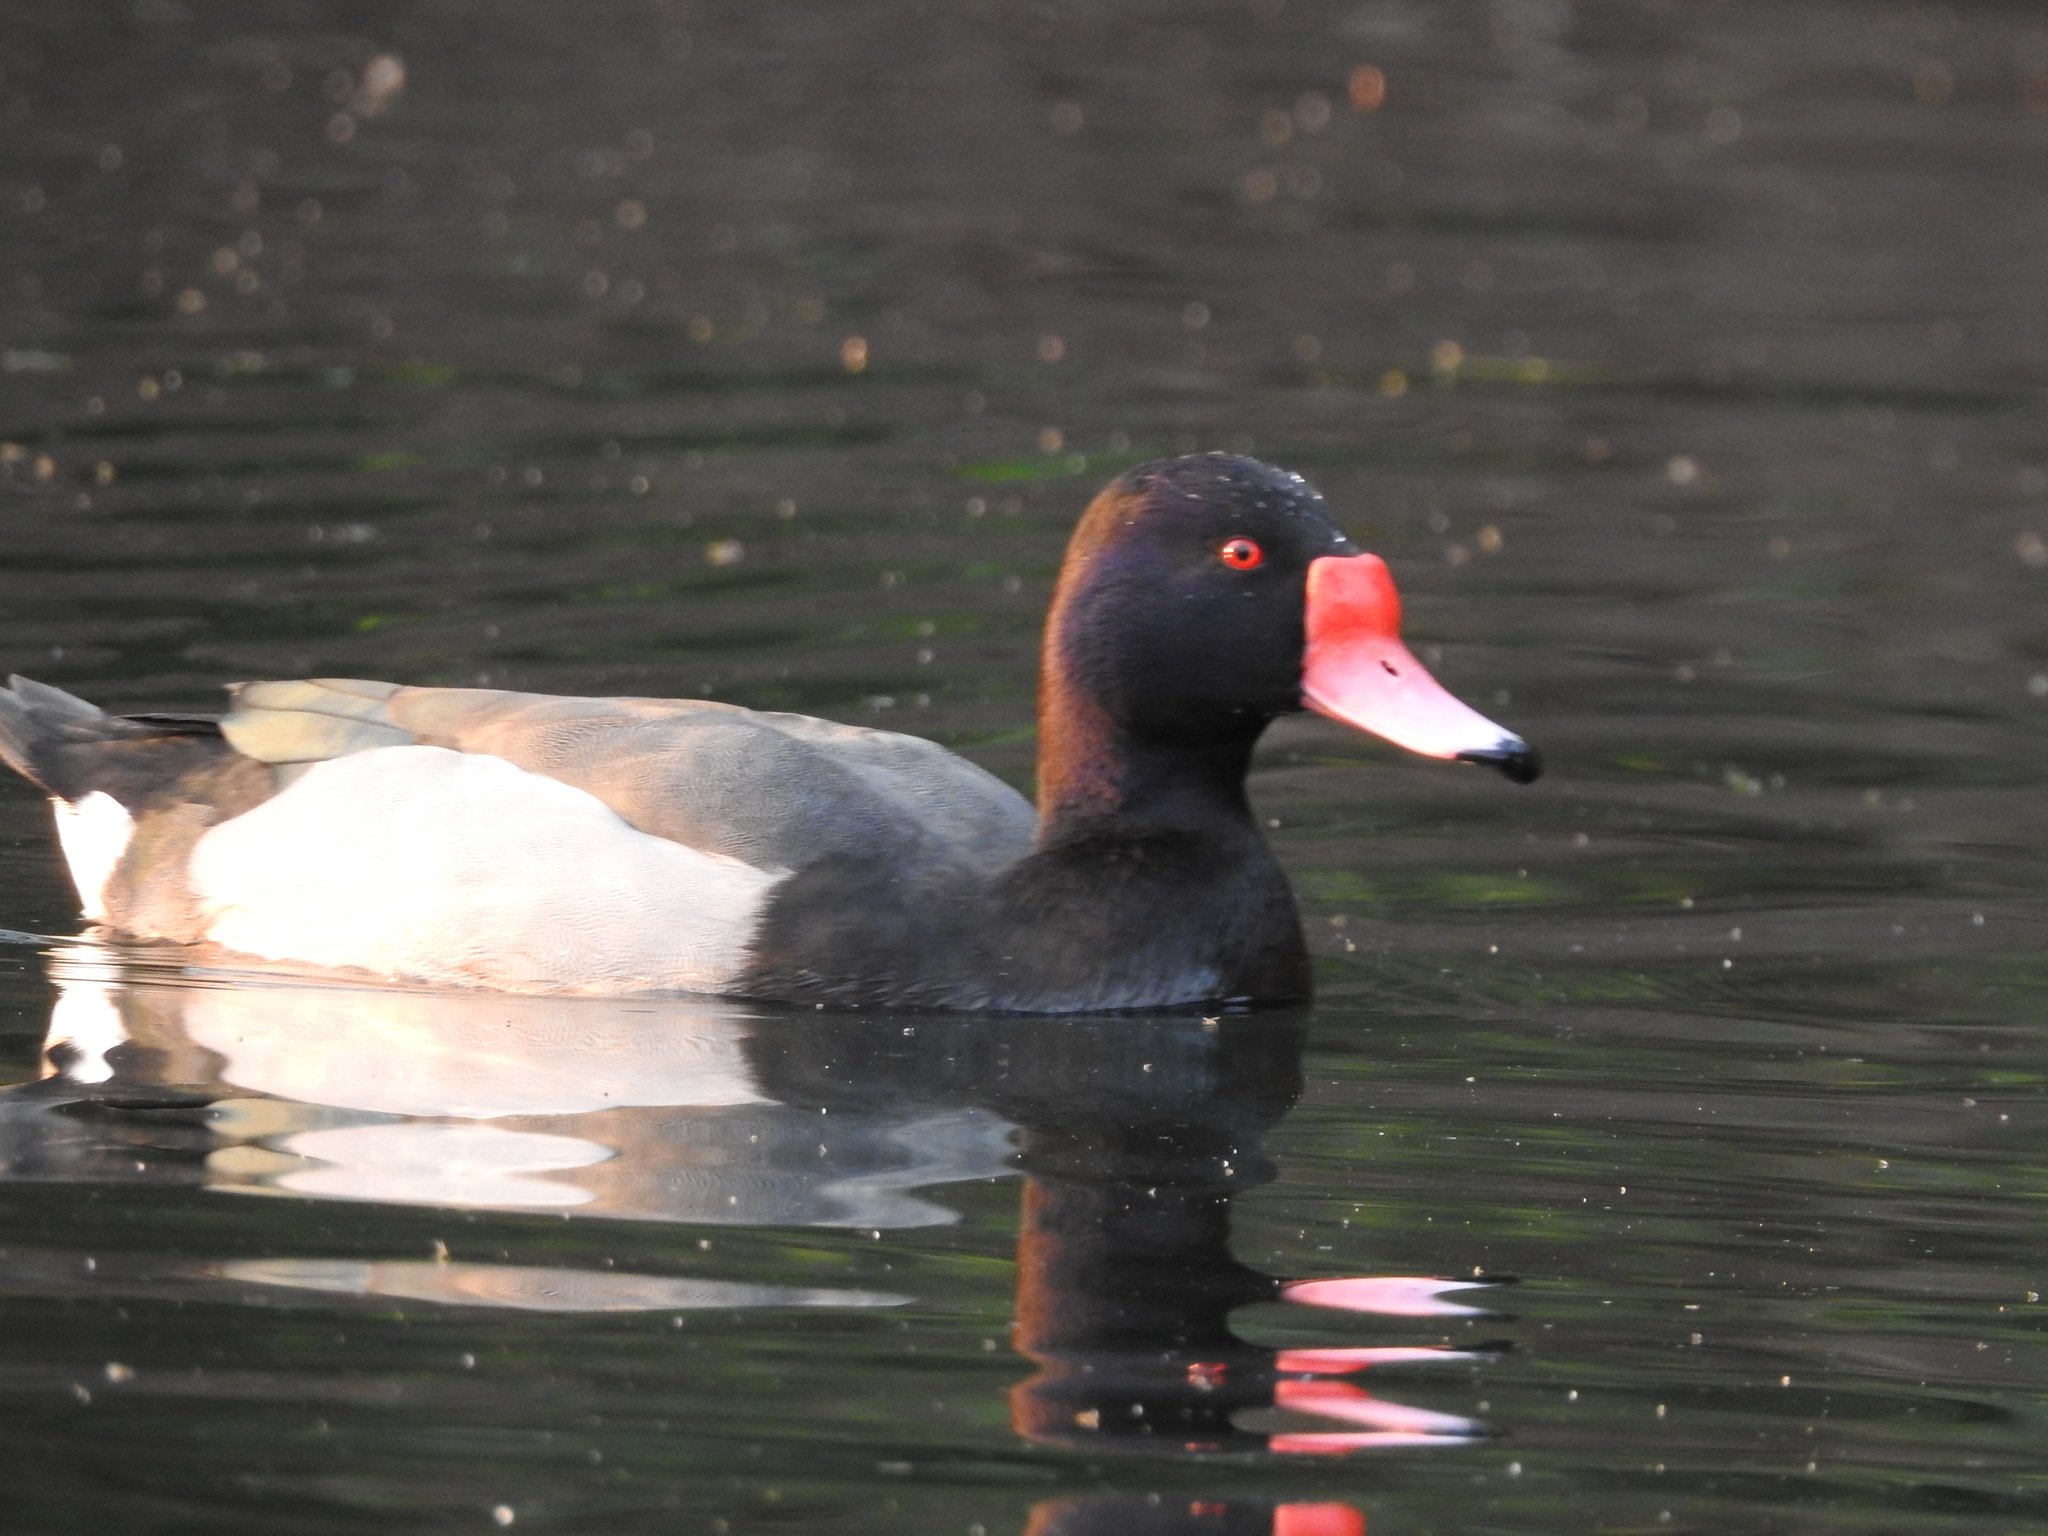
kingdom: Animalia
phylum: Chordata
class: Aves
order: Anseriformes
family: Anatidae
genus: Netta
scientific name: Netta peposaca
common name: Rosy-billed pochard
